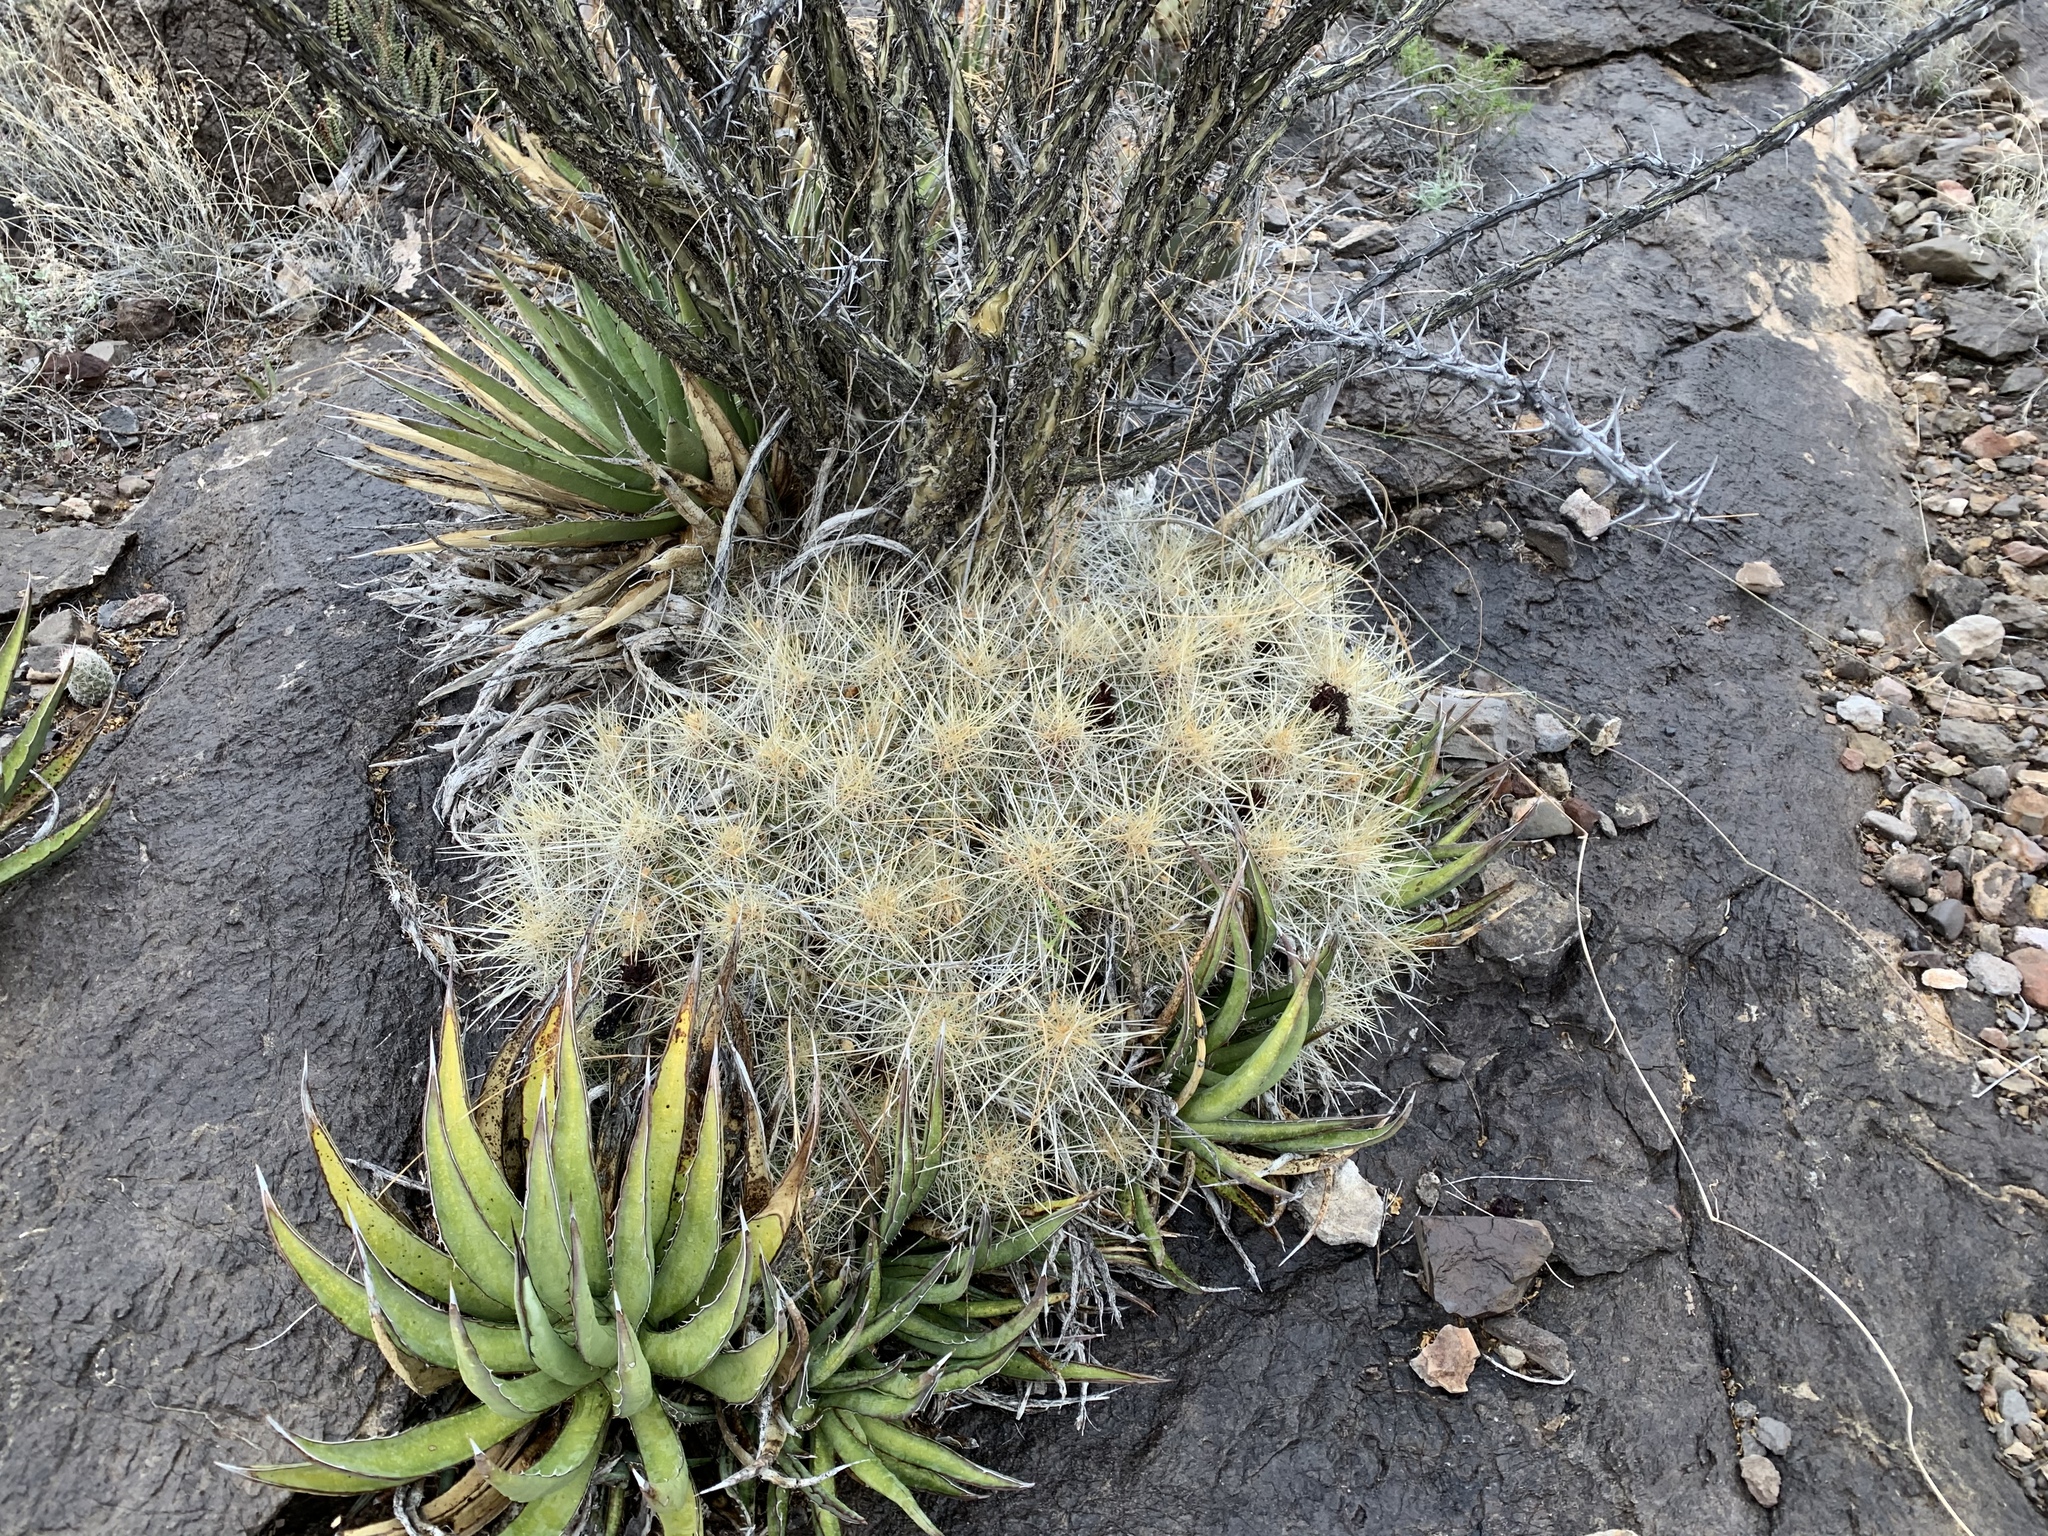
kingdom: Plantae
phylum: Tracheophyta
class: Magnoliopsida
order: Caryophyllales
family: Cactaceae
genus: Echinocereus
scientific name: Echinocereus stramineus
